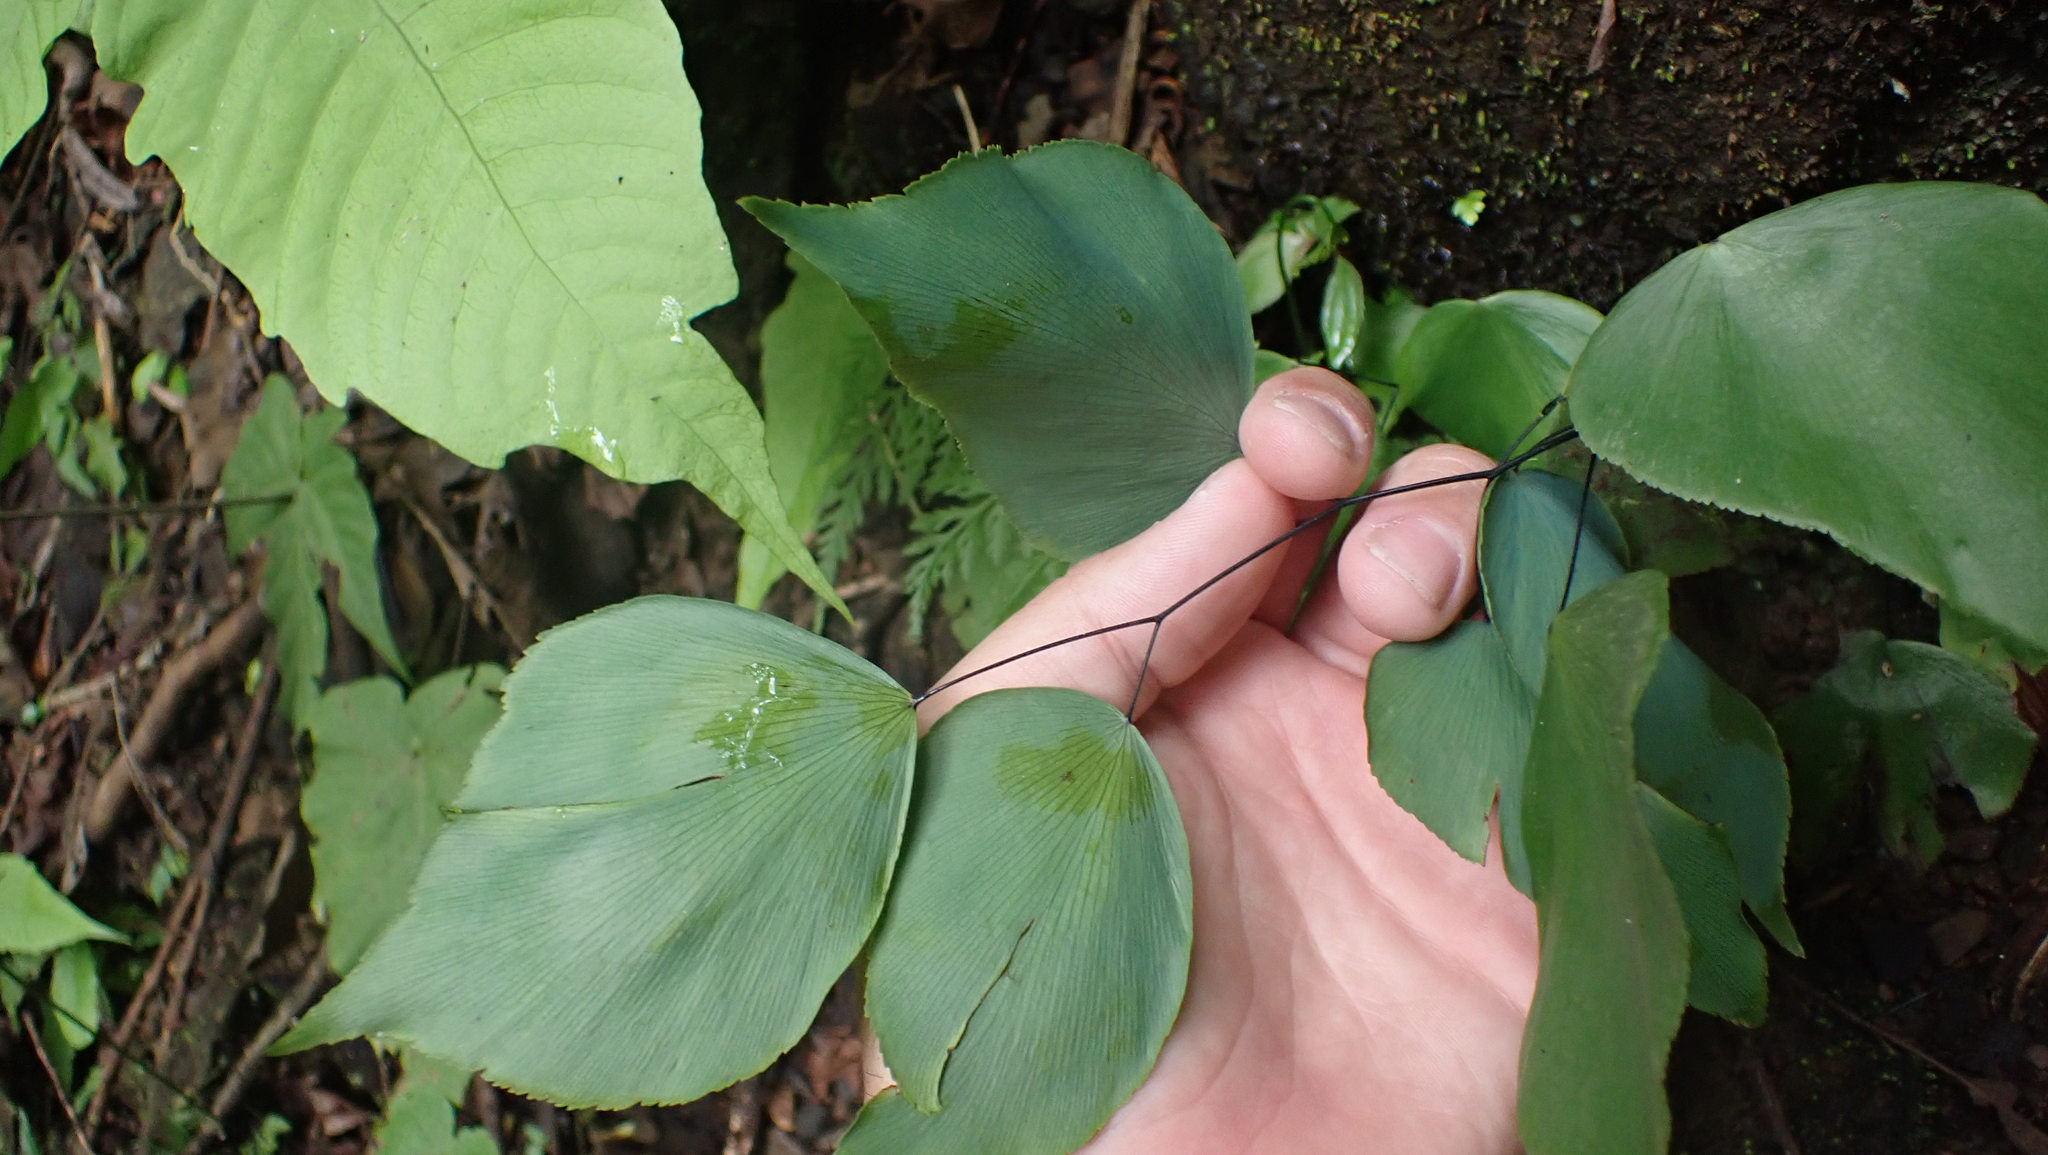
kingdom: Plantae
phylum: Tracheophyta
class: Polypodiopsida
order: Polypodiales
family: Pteridaceae
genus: Adiantum
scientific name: Adiantum seemannii
